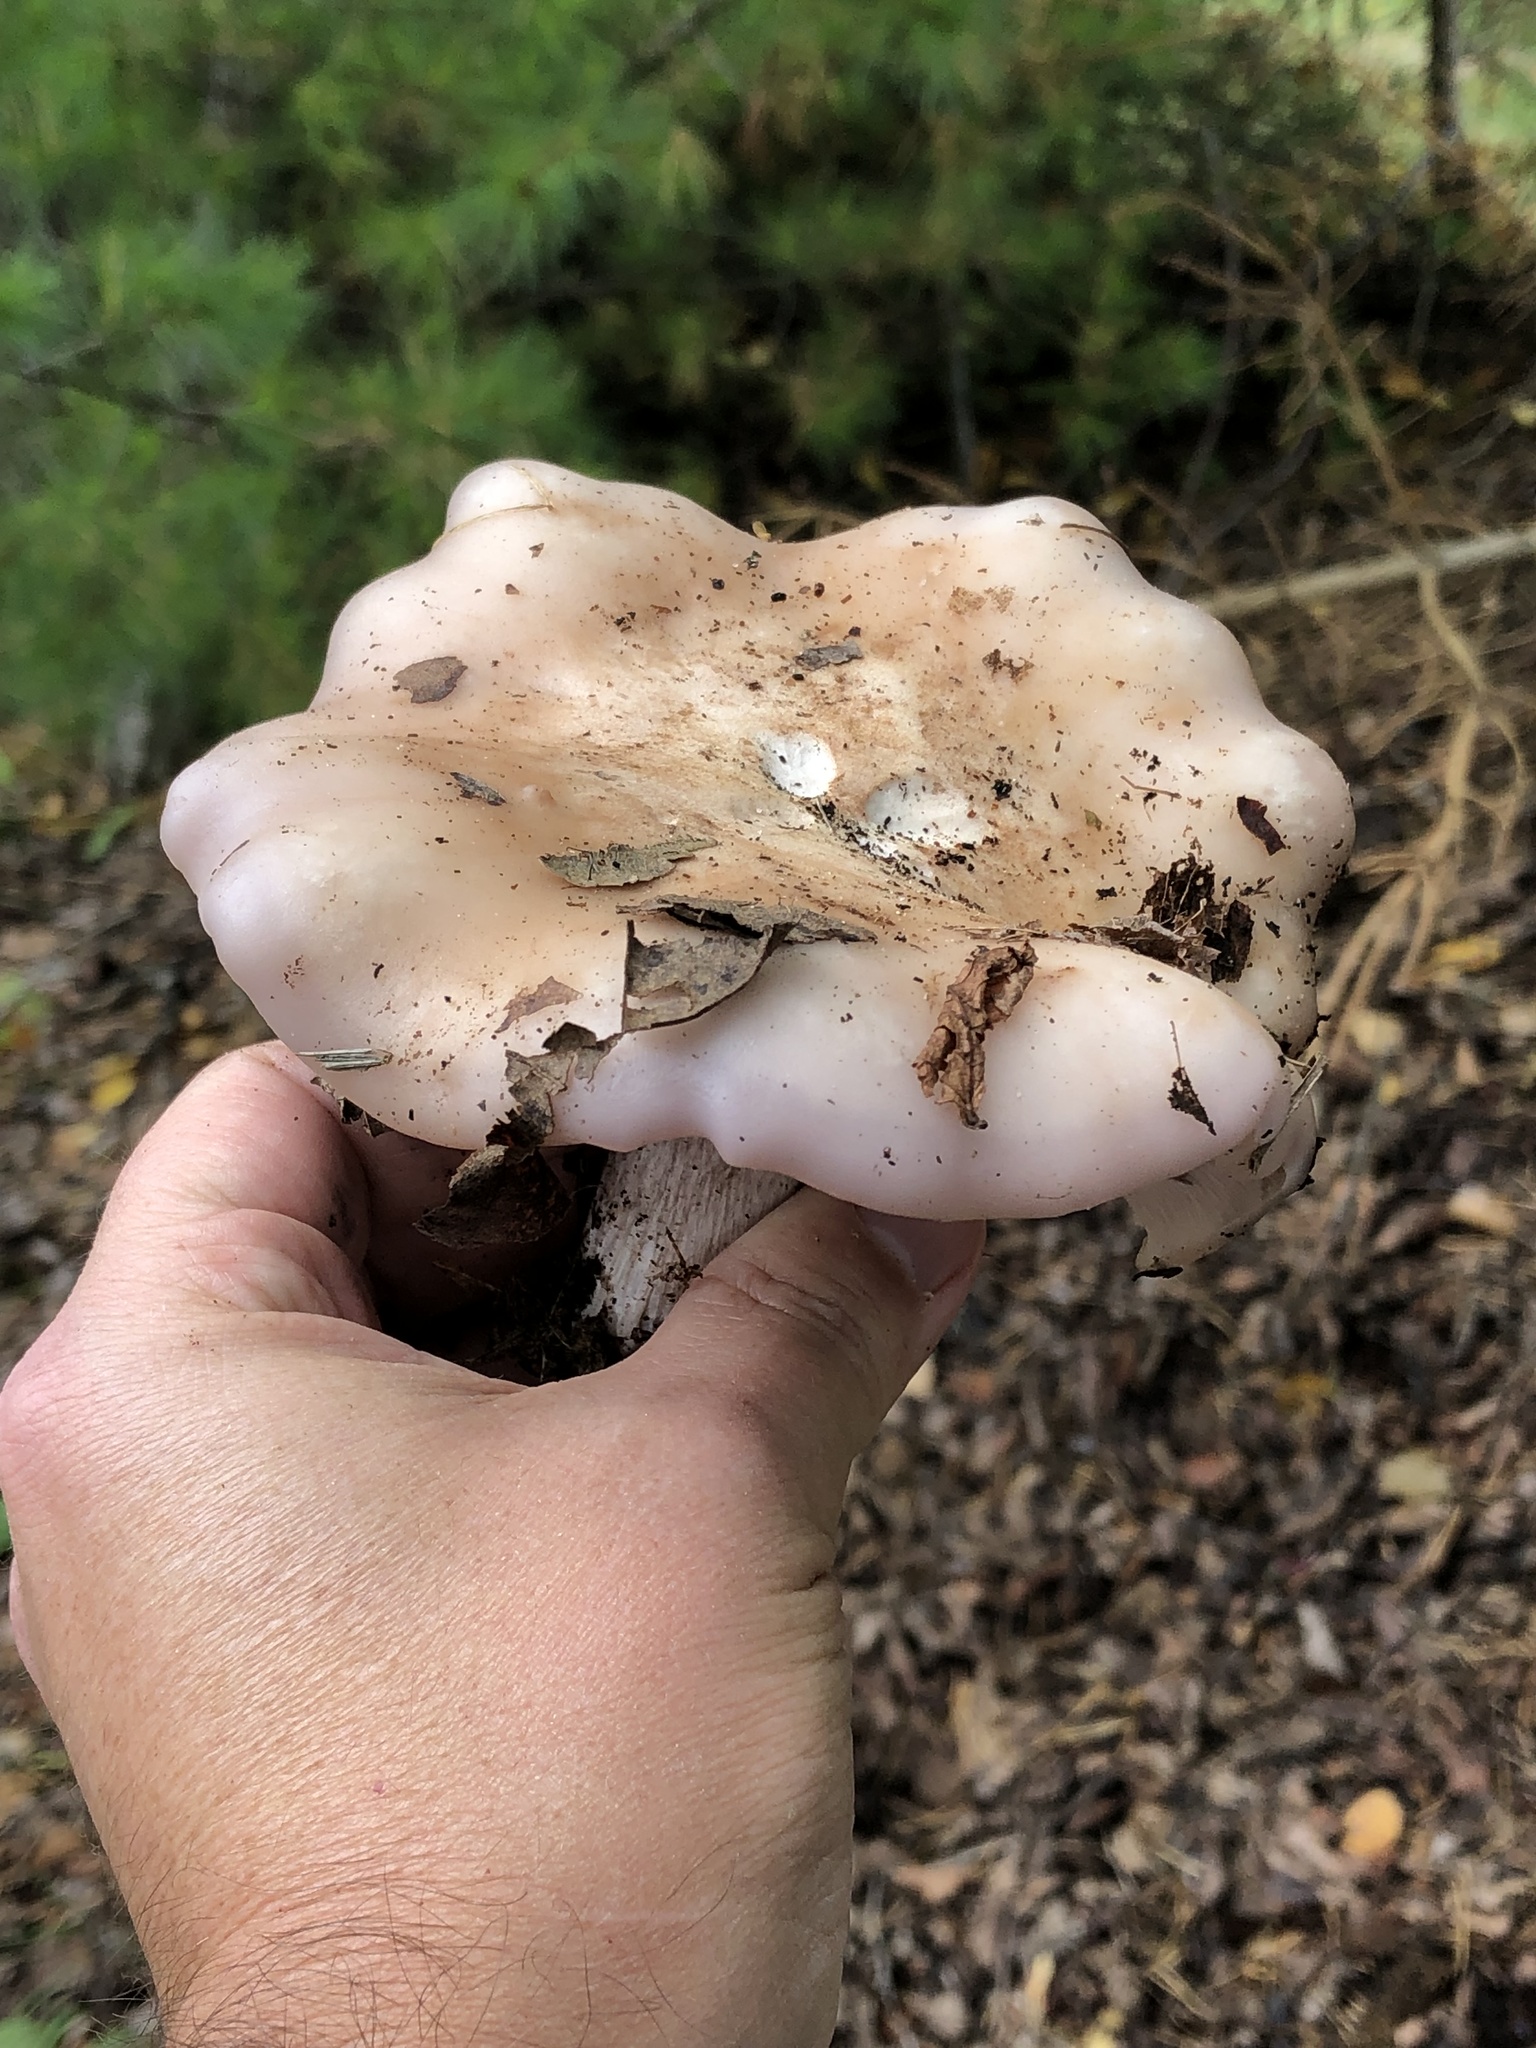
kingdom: Fungi
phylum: Basidiomycota
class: Agaricomycetes
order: Agaricales
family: Tricholomataceae
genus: Collybia
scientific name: Collybia
